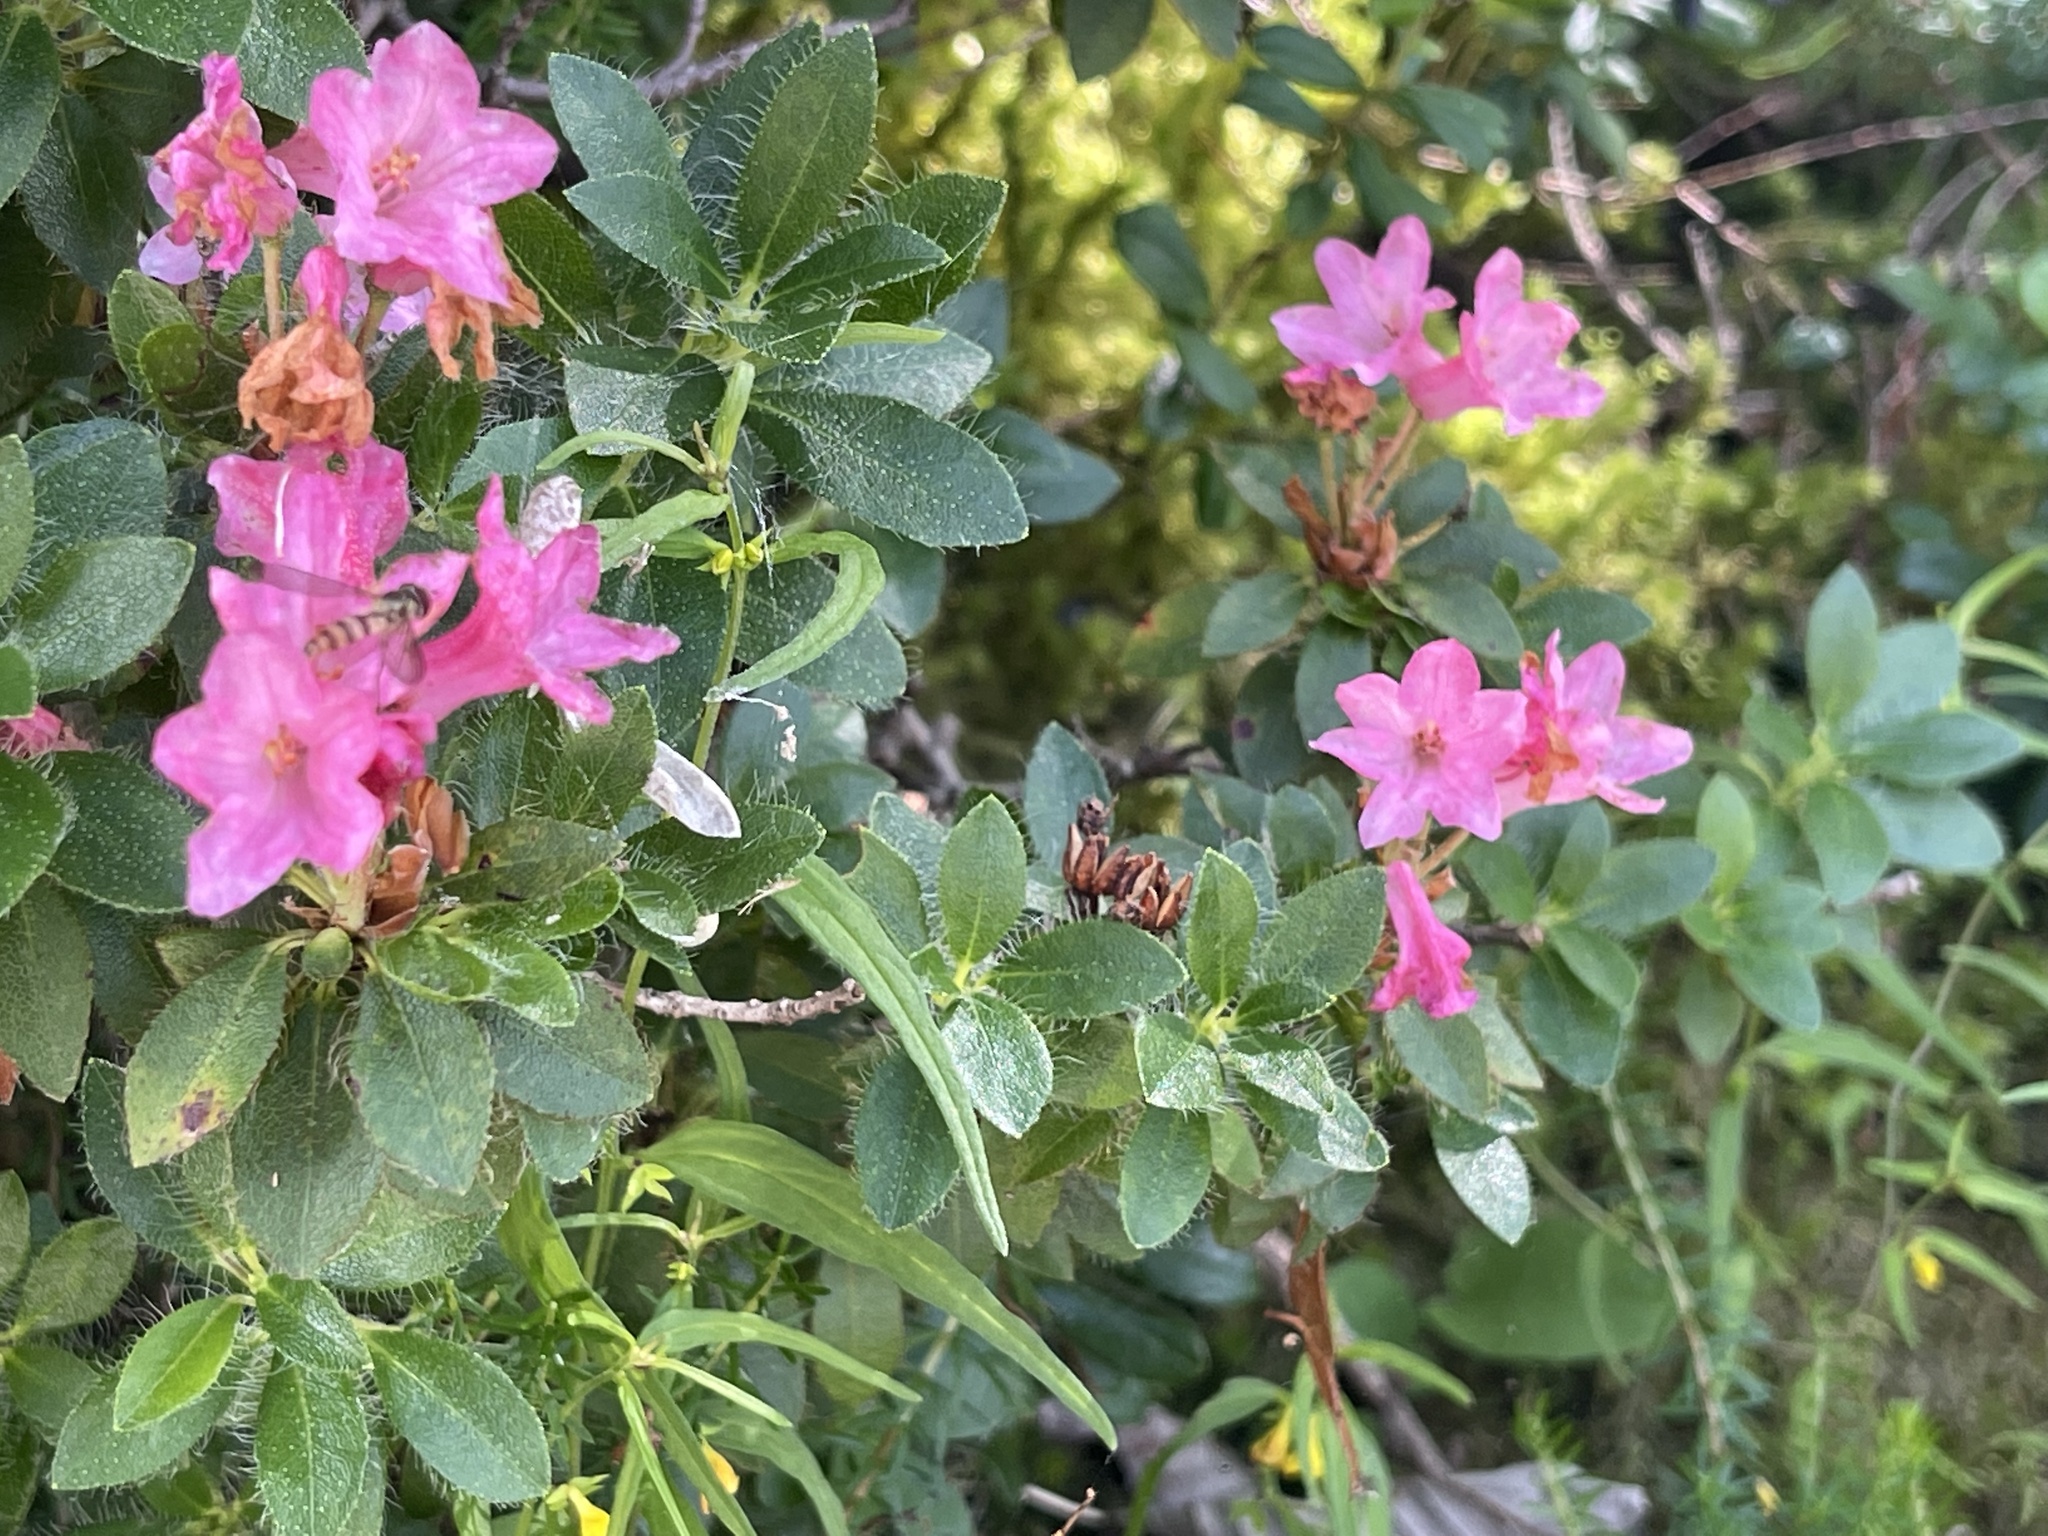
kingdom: Plantae
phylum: Tracheophyta
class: Magnoliopsida
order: Ericales
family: Ericaceae
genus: Rhododendron
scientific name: Rhododendron hirsutum
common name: Hairy alpenrose
